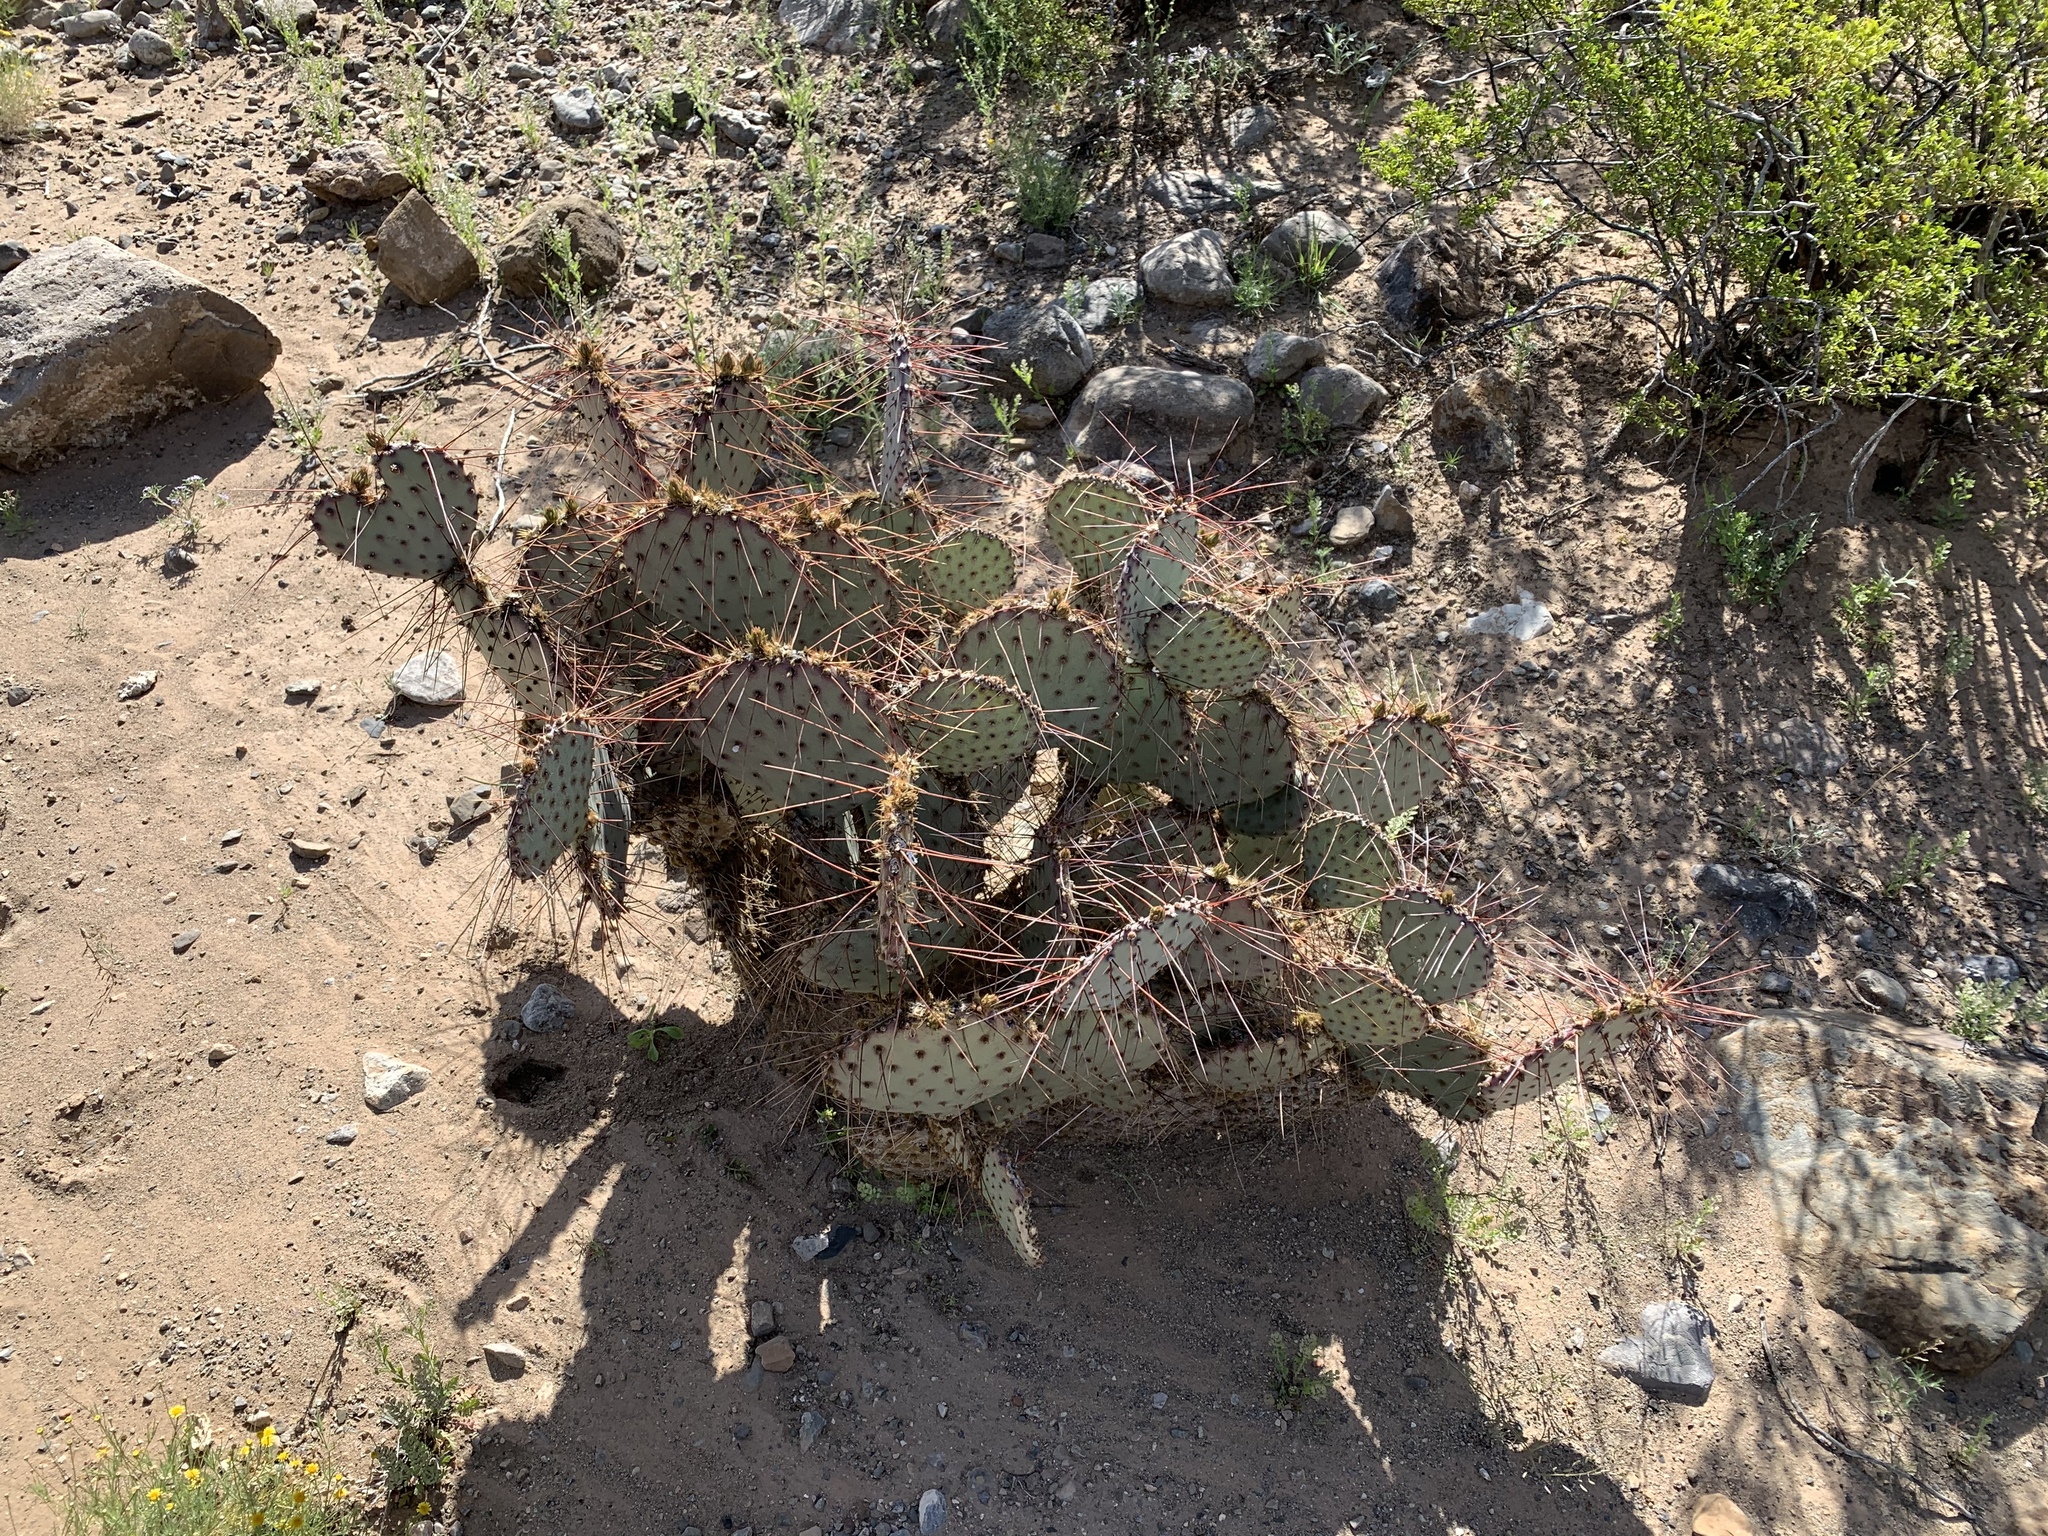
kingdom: Plantae
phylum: Tracheophyta
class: Magnoliopsida
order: Caryophyllales
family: Cactaceae
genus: Opuntia
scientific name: Opuntia macrocentra
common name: Purple prickly-pear
